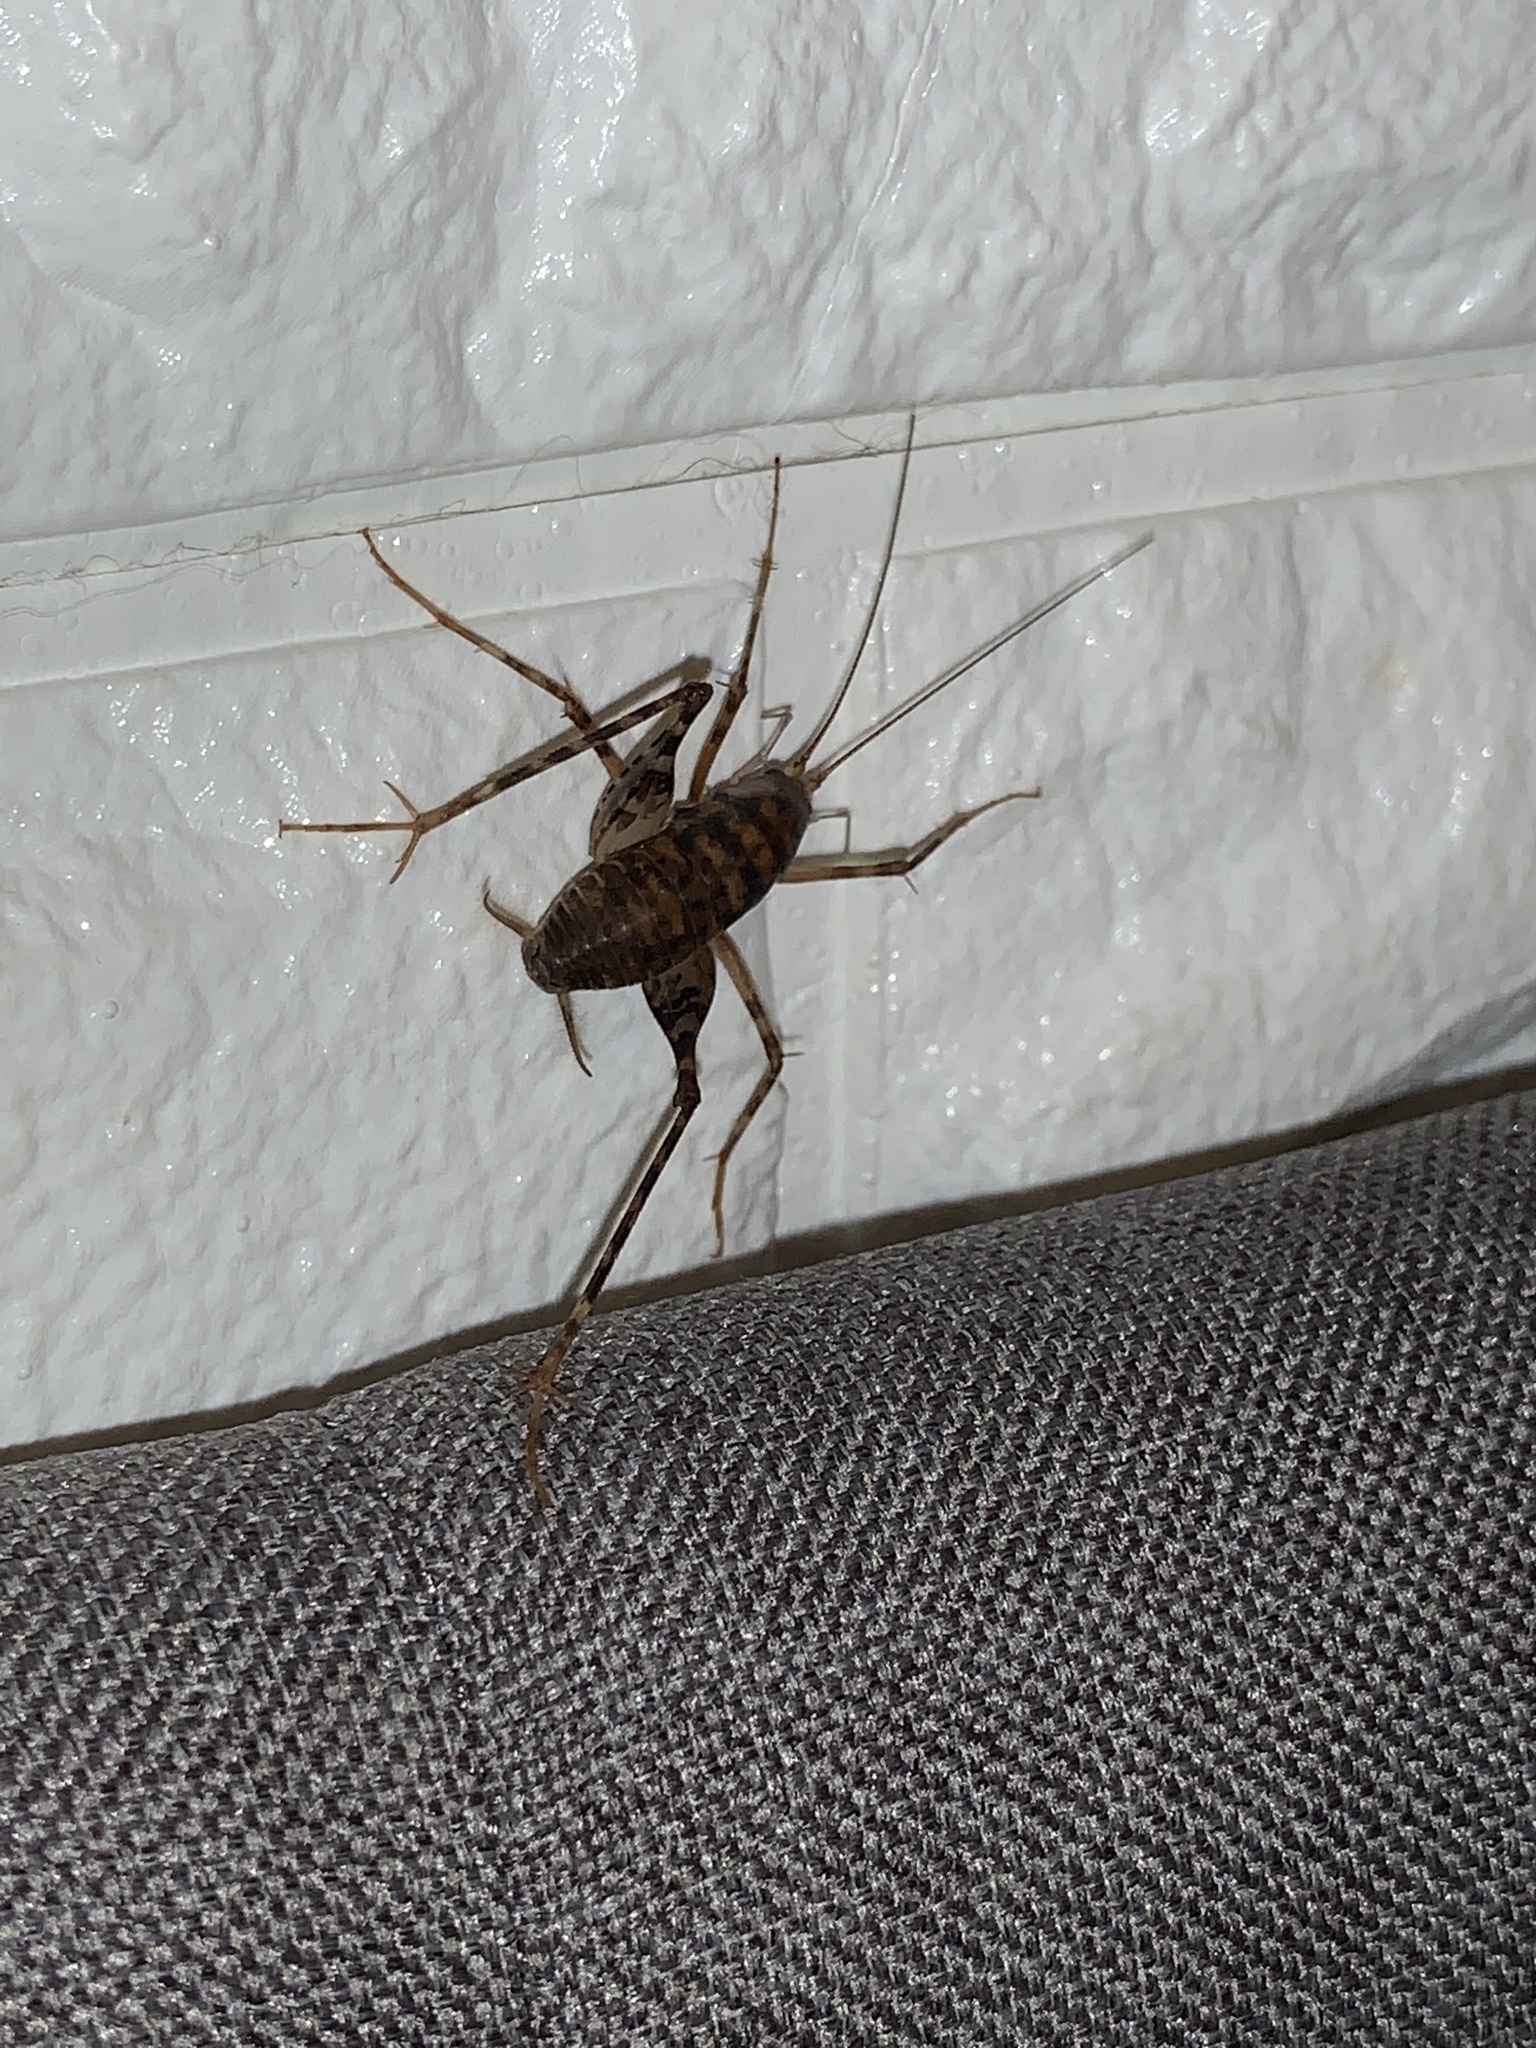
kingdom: Animalia
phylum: Arthropoda
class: Insecta
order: Orthoptera
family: Rhaphidophoridae
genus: Tachycines
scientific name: Tachycines asynamorus
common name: Greenhouse camel cricket
